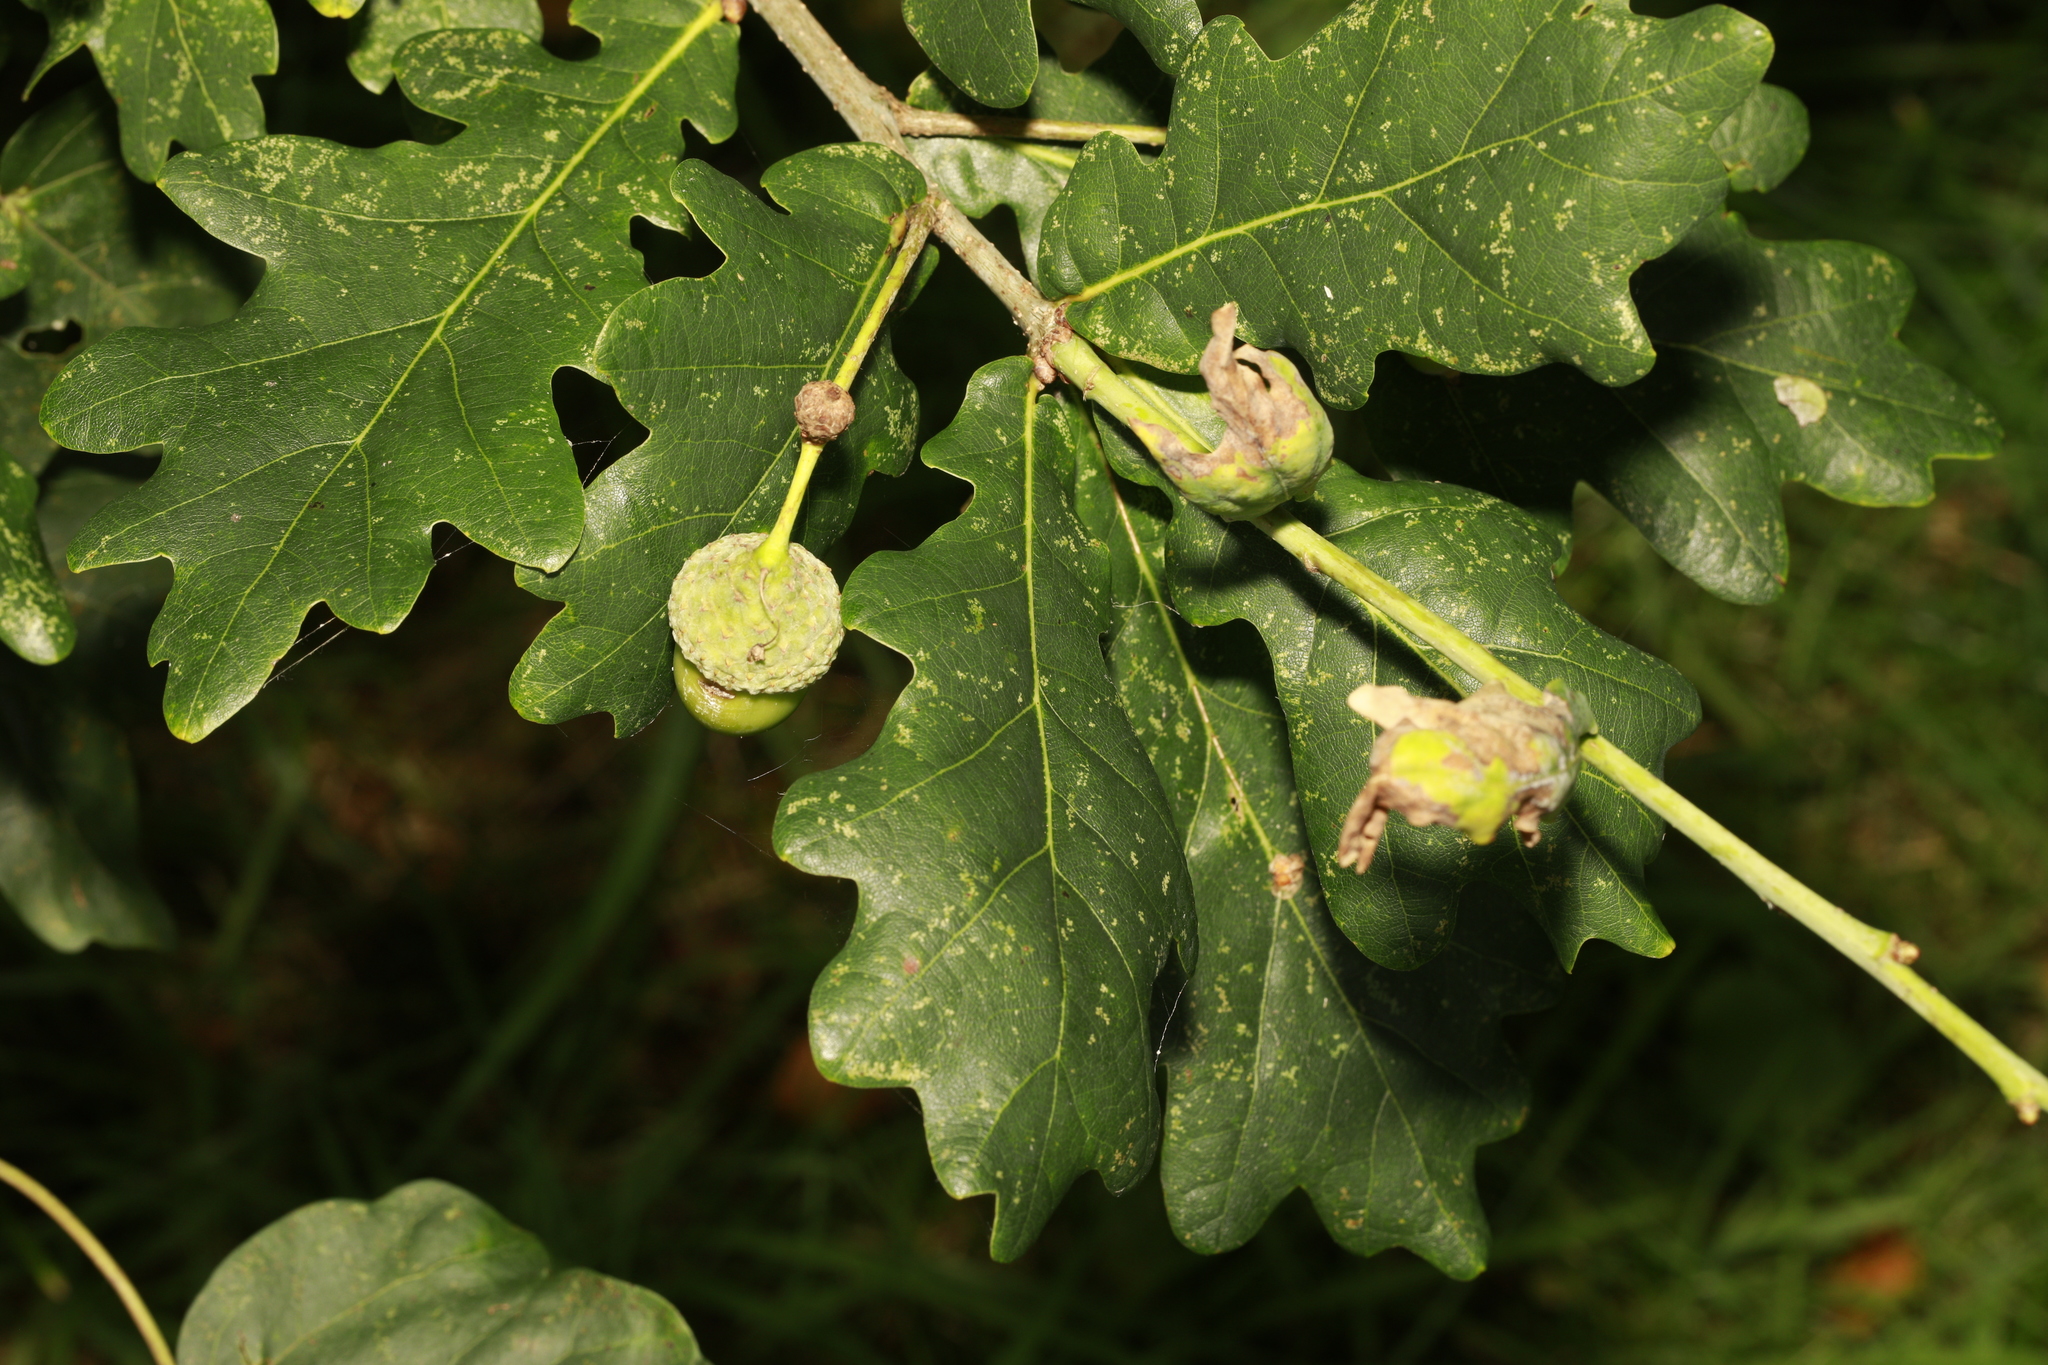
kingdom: Plantae
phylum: Tracheophyta
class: Magnoliopsida
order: Fagales
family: Fagaceae
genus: Quercus
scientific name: Quercus robur
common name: Pedunculate oak
